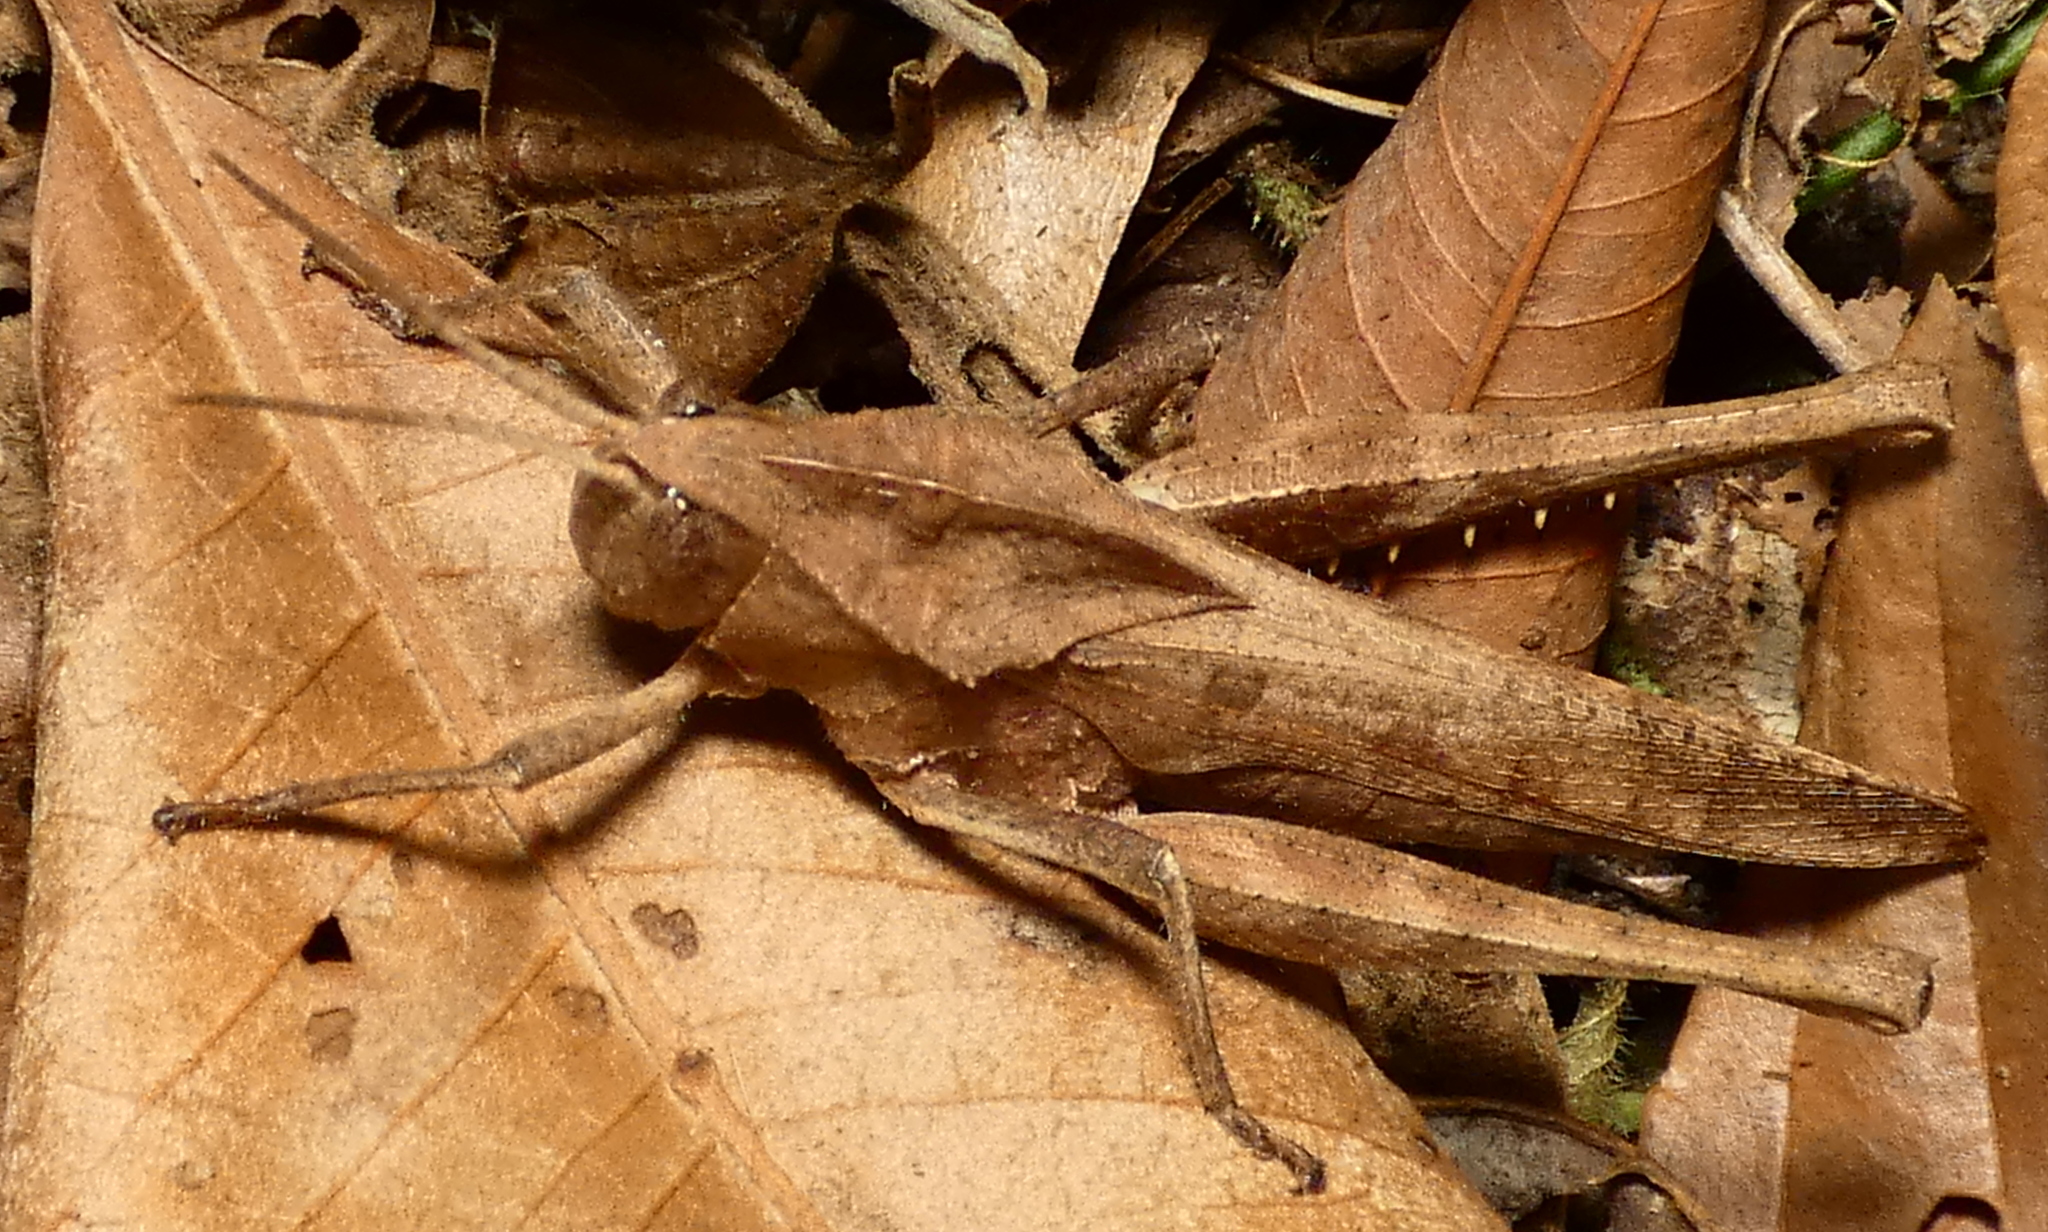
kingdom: Animalia
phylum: Arthropoda
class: Insecta
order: Orthoptera
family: Romaleidae
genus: Xyleus
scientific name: Xyleus discoideus
